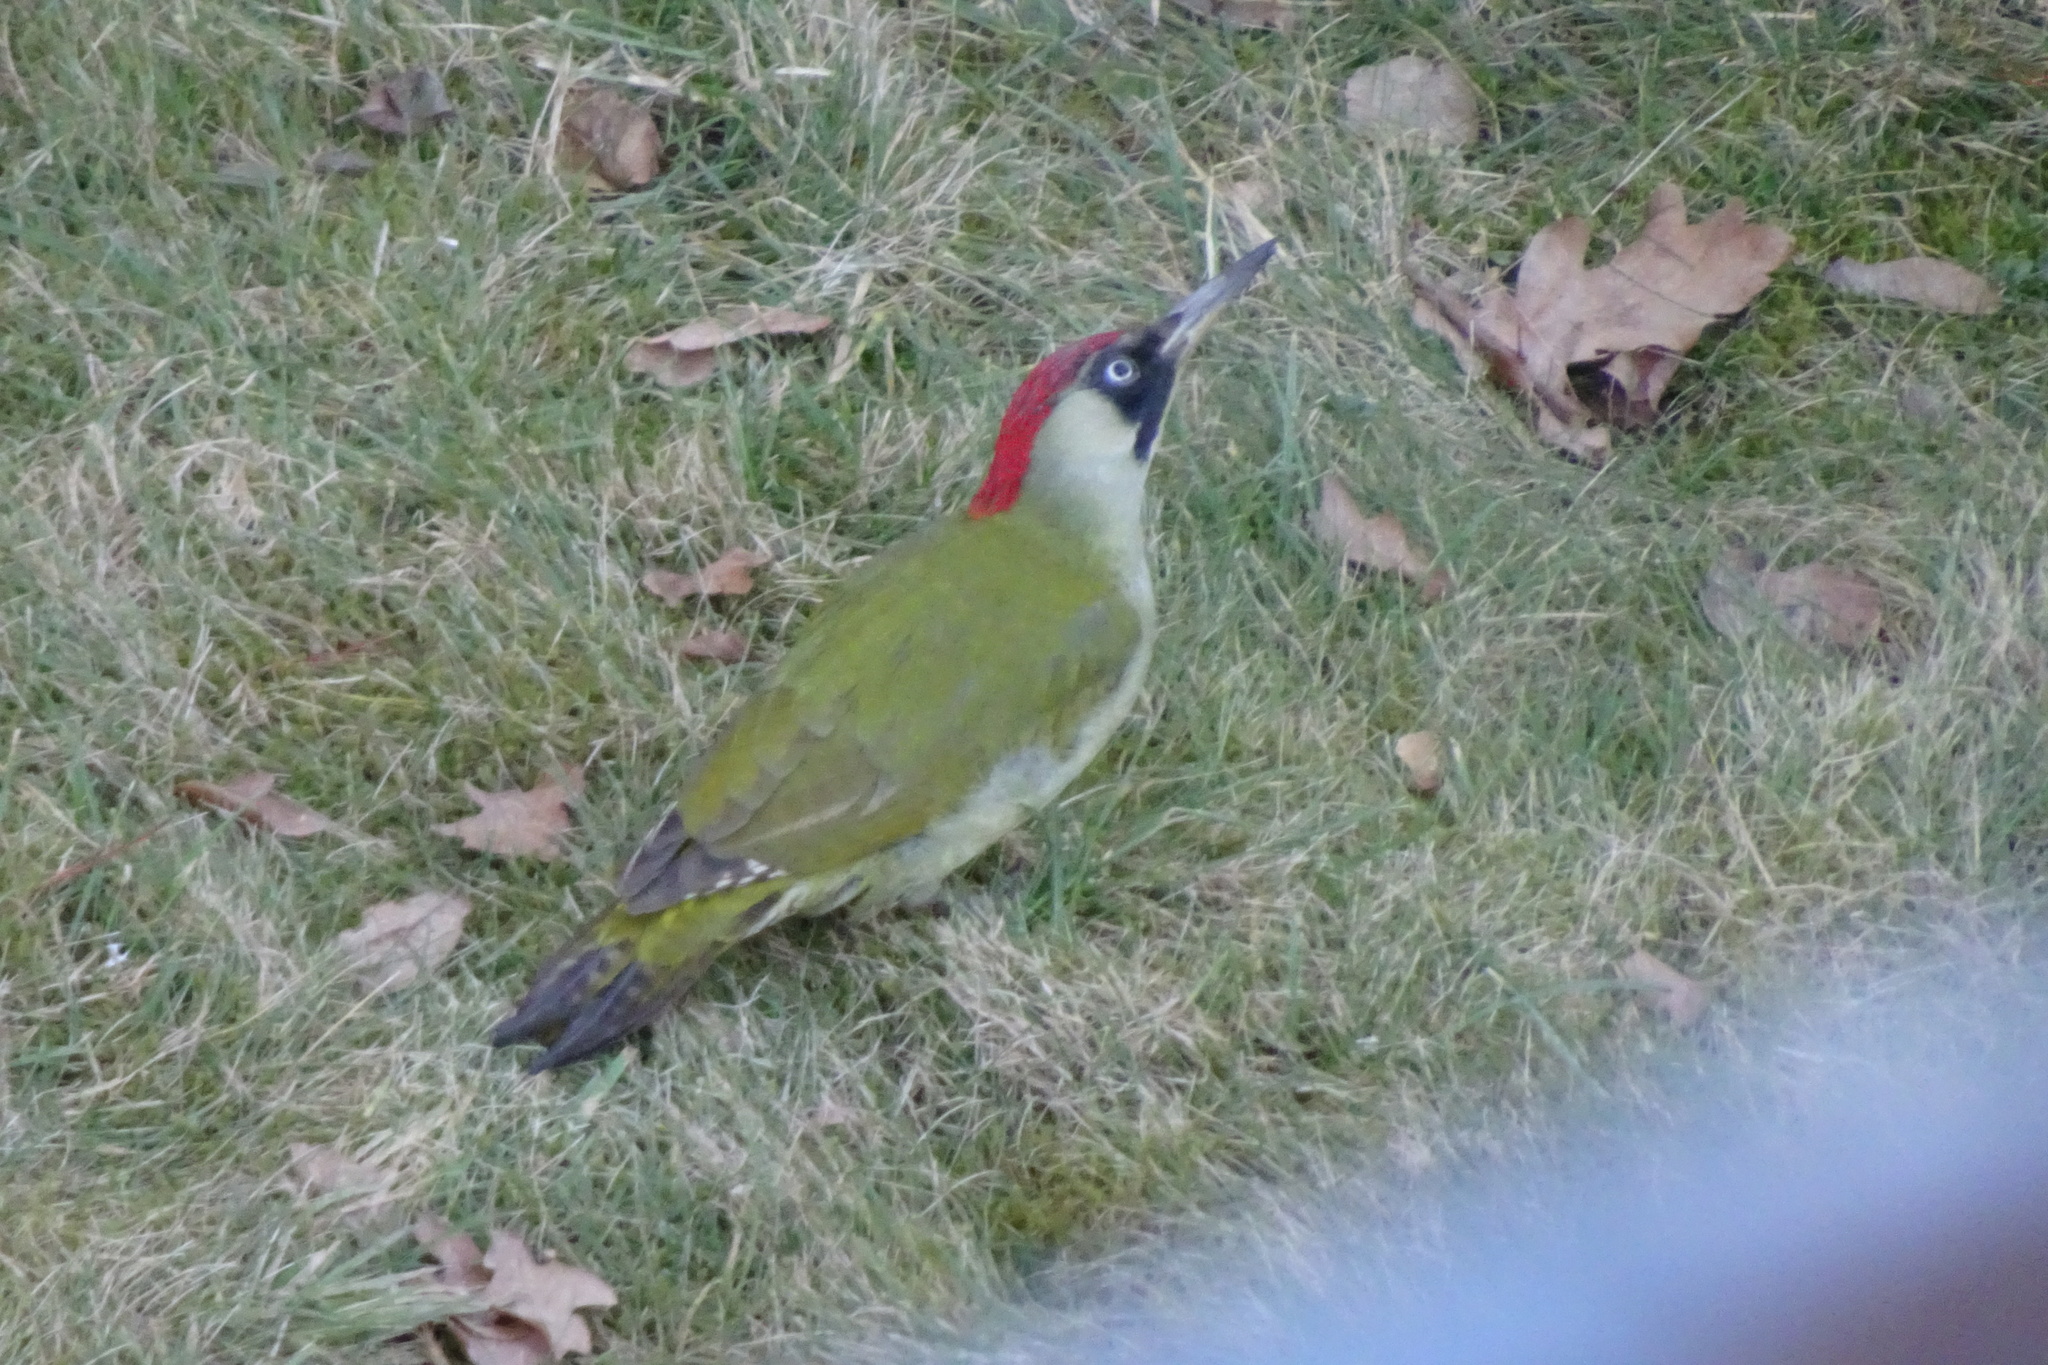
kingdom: Animalia
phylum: Chordata
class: Aves
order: Piciformes
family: Picidae
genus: Picus
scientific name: Picus viridis
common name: European green woodpecker
